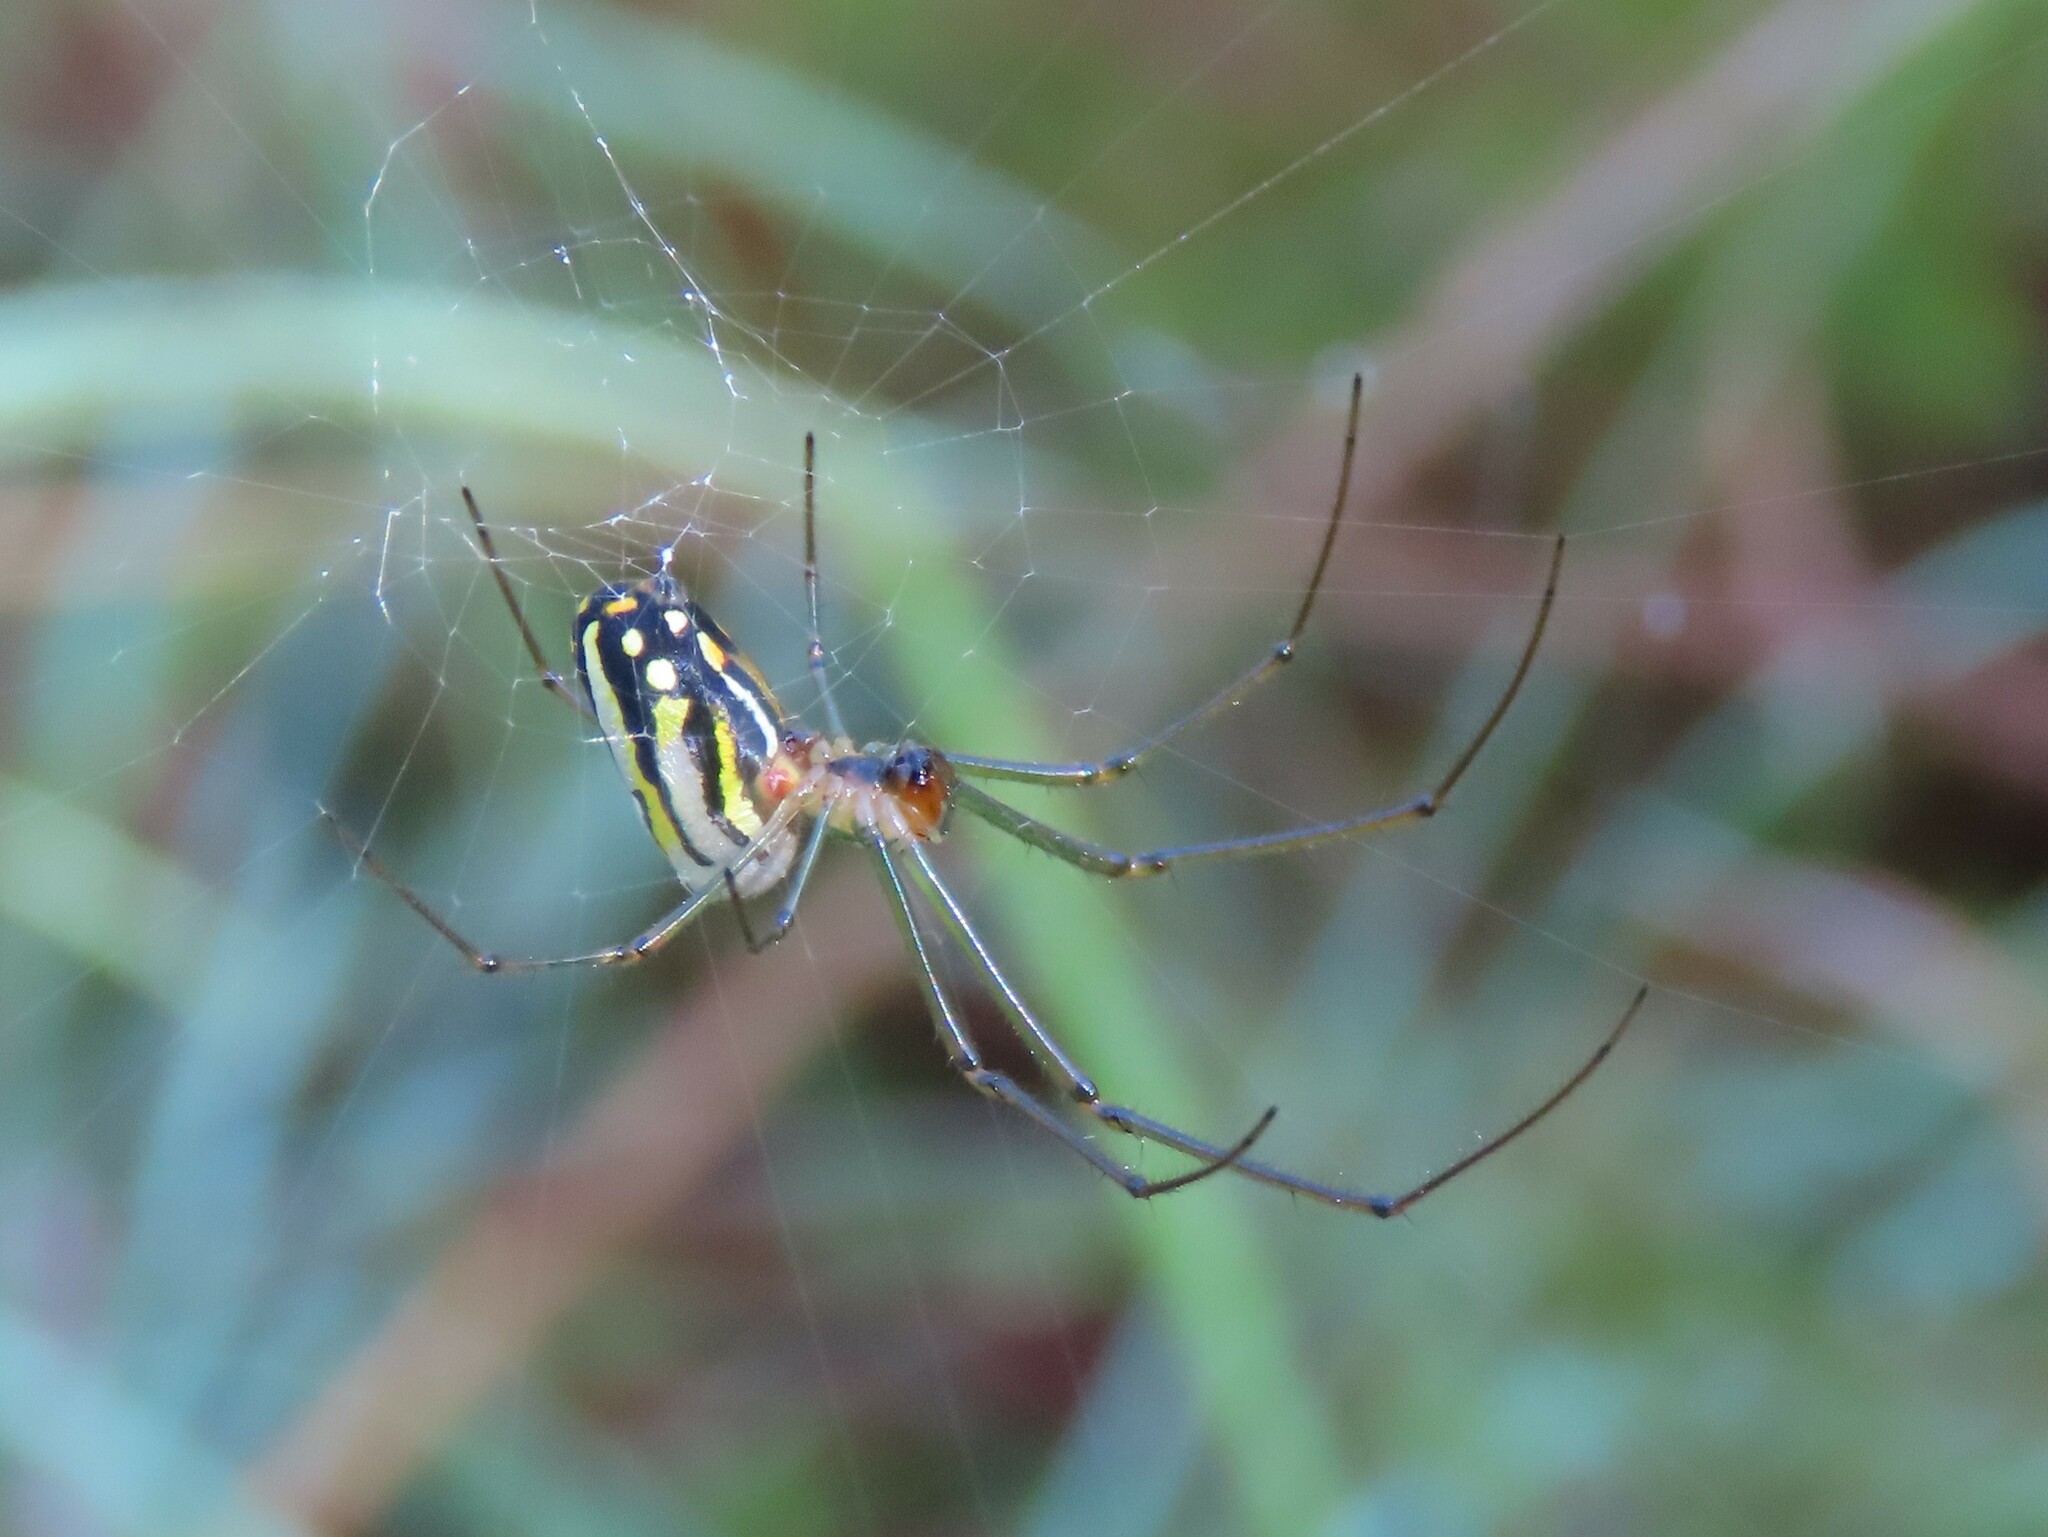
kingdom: Animalia
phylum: Arthropoda
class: Arachnida
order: Araneae
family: Tetragnathidae
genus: Leucauge
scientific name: Leucauge argyra
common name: Longjawed orb weavers
